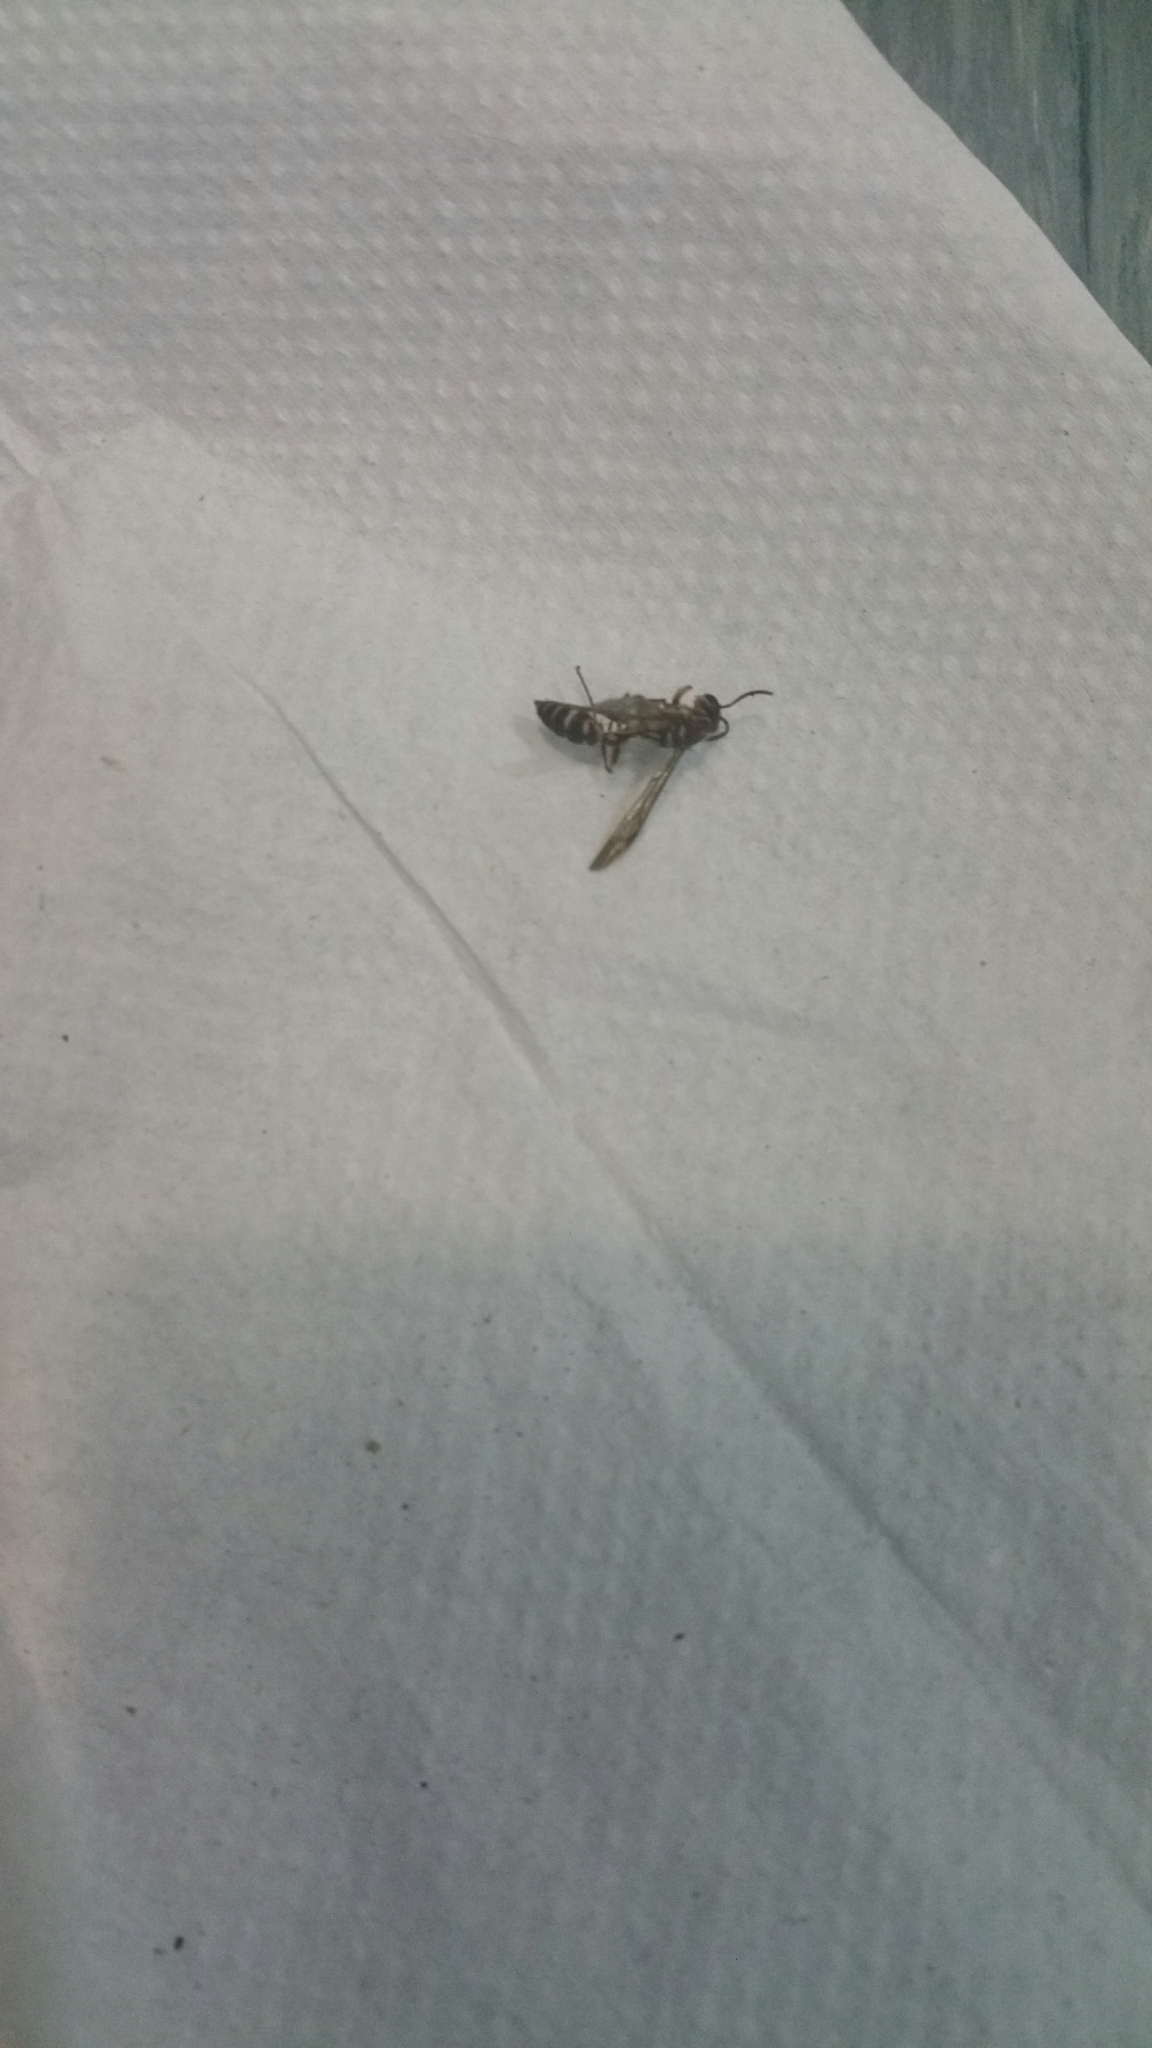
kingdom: Animalia
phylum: Arthropoda
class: Insecta
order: Hymenoptera
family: Vespidae
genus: Parapolybia
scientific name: Parapolybia nodosa
